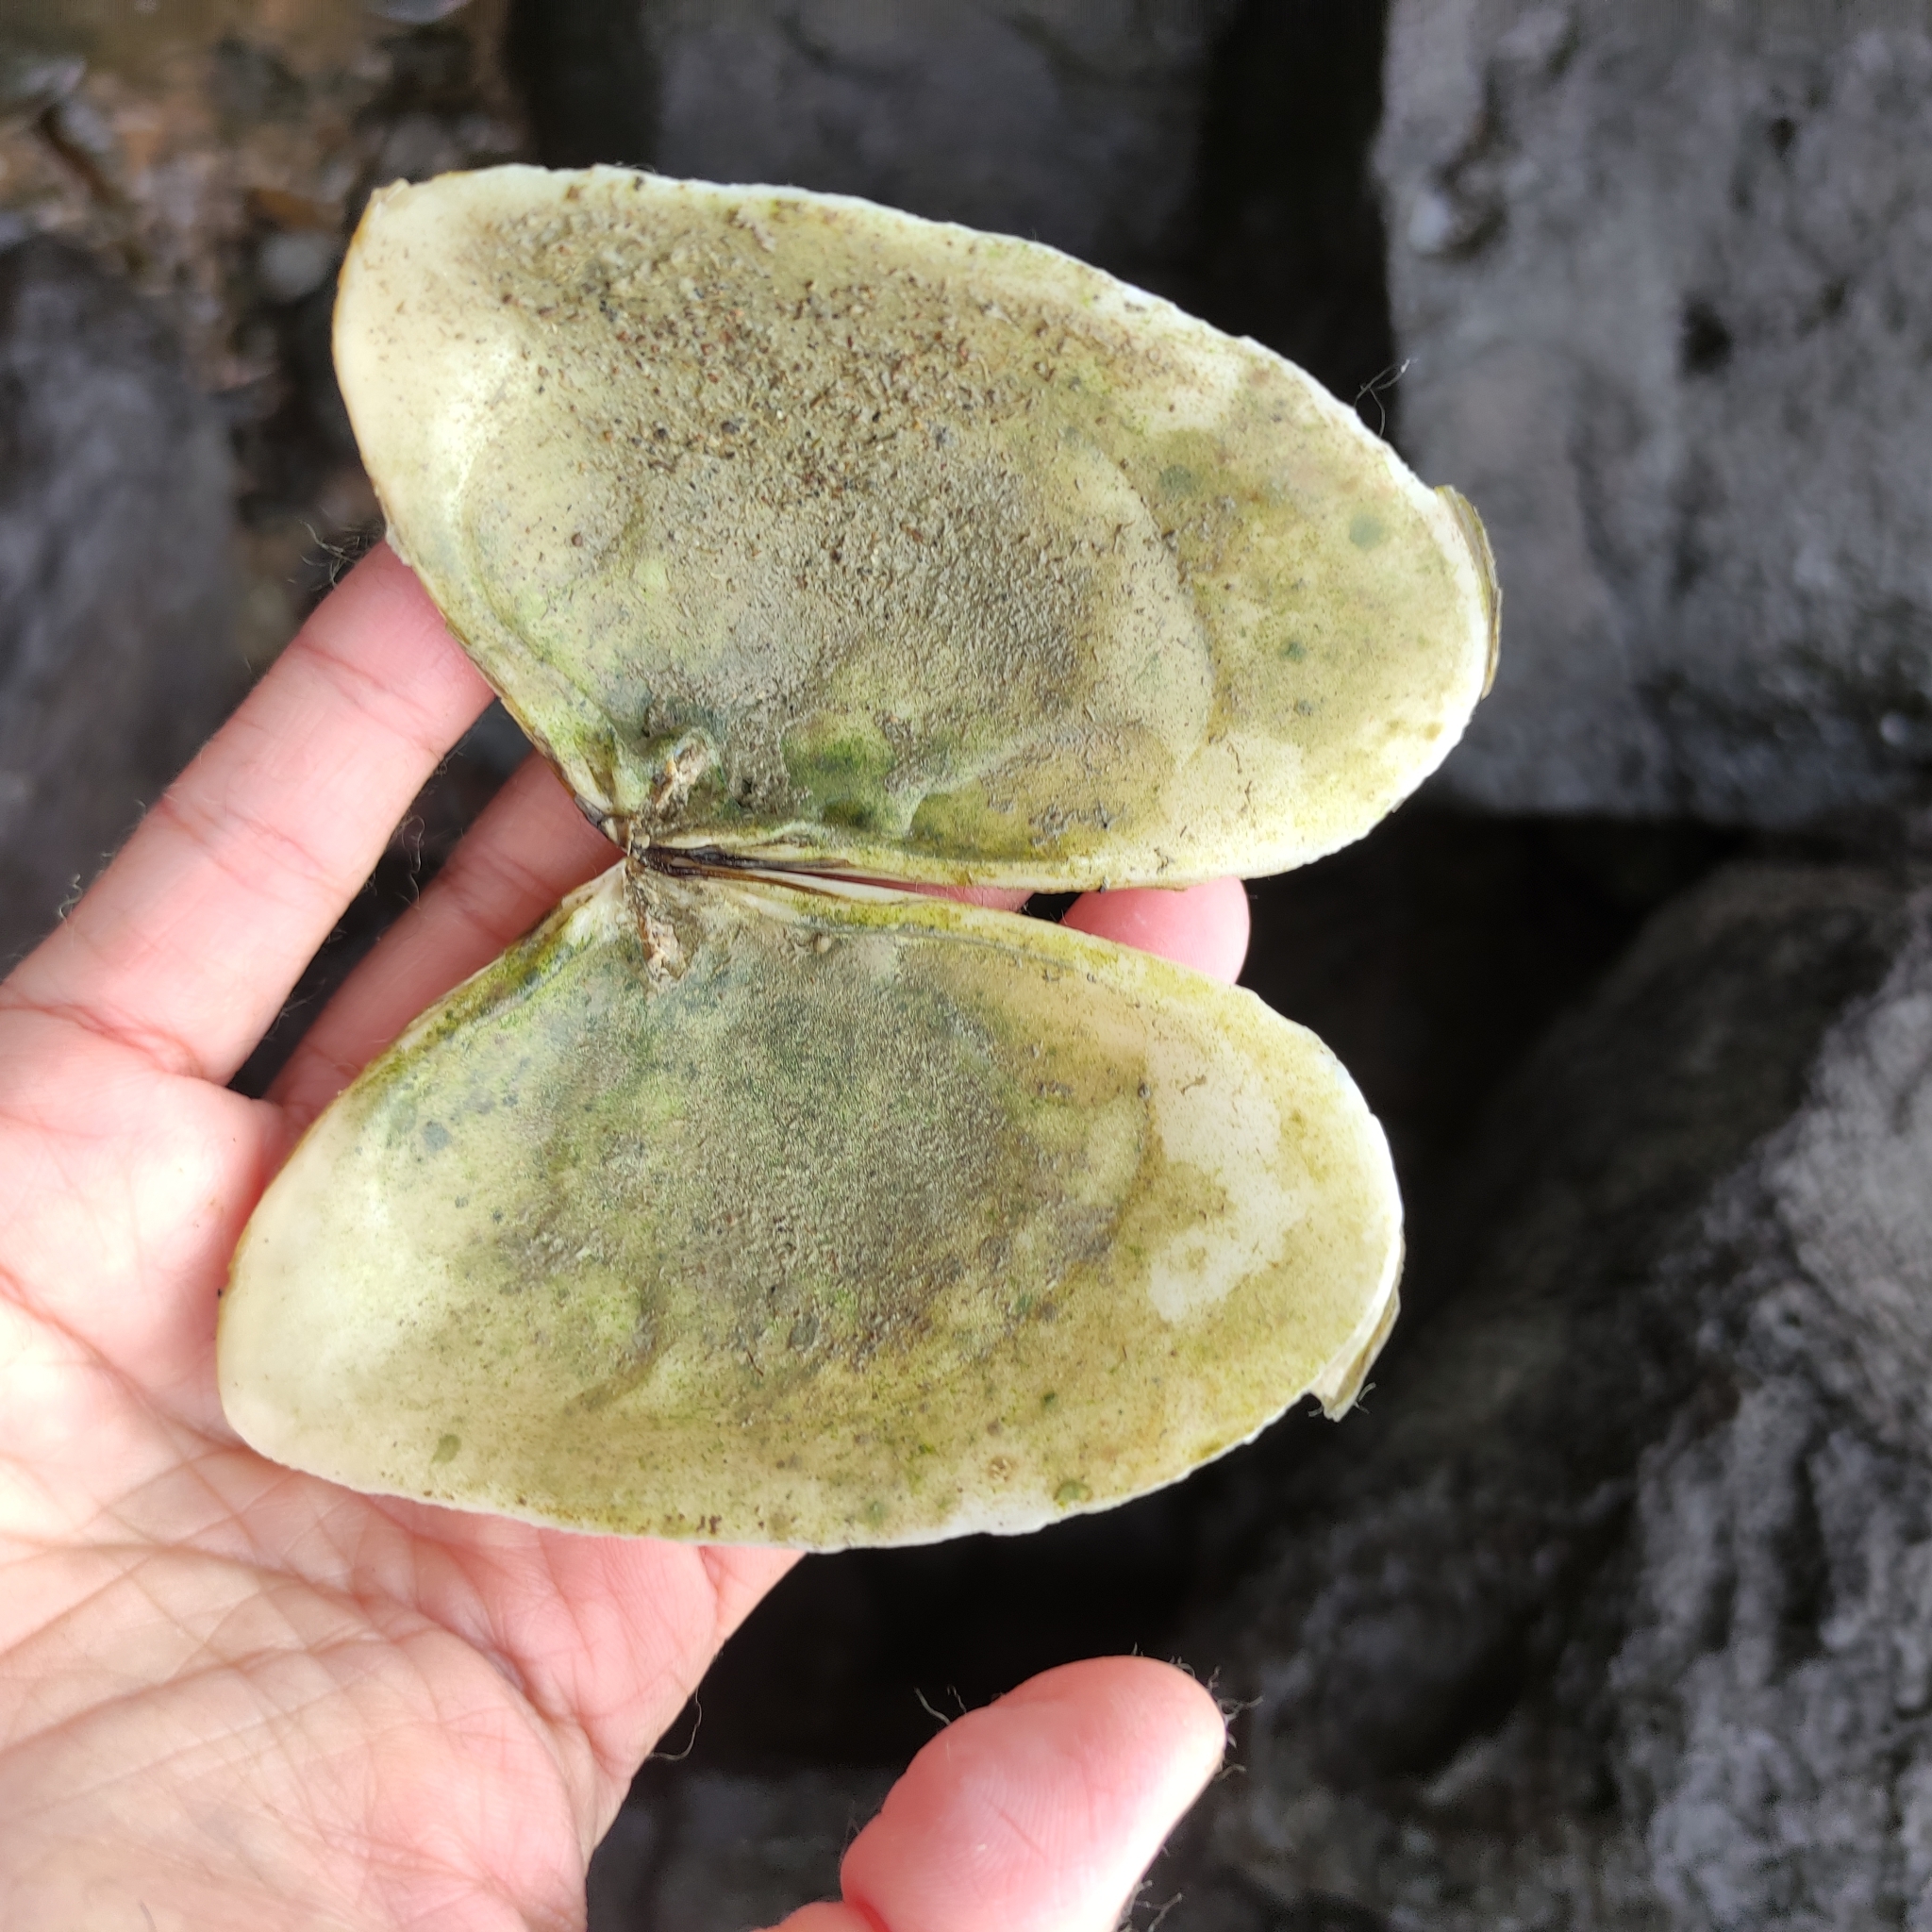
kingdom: Animalia
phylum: Mollusca
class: Bivalvia
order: Venerida
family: Mesodesmatidae
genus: Paphies
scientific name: Paphies donacina
